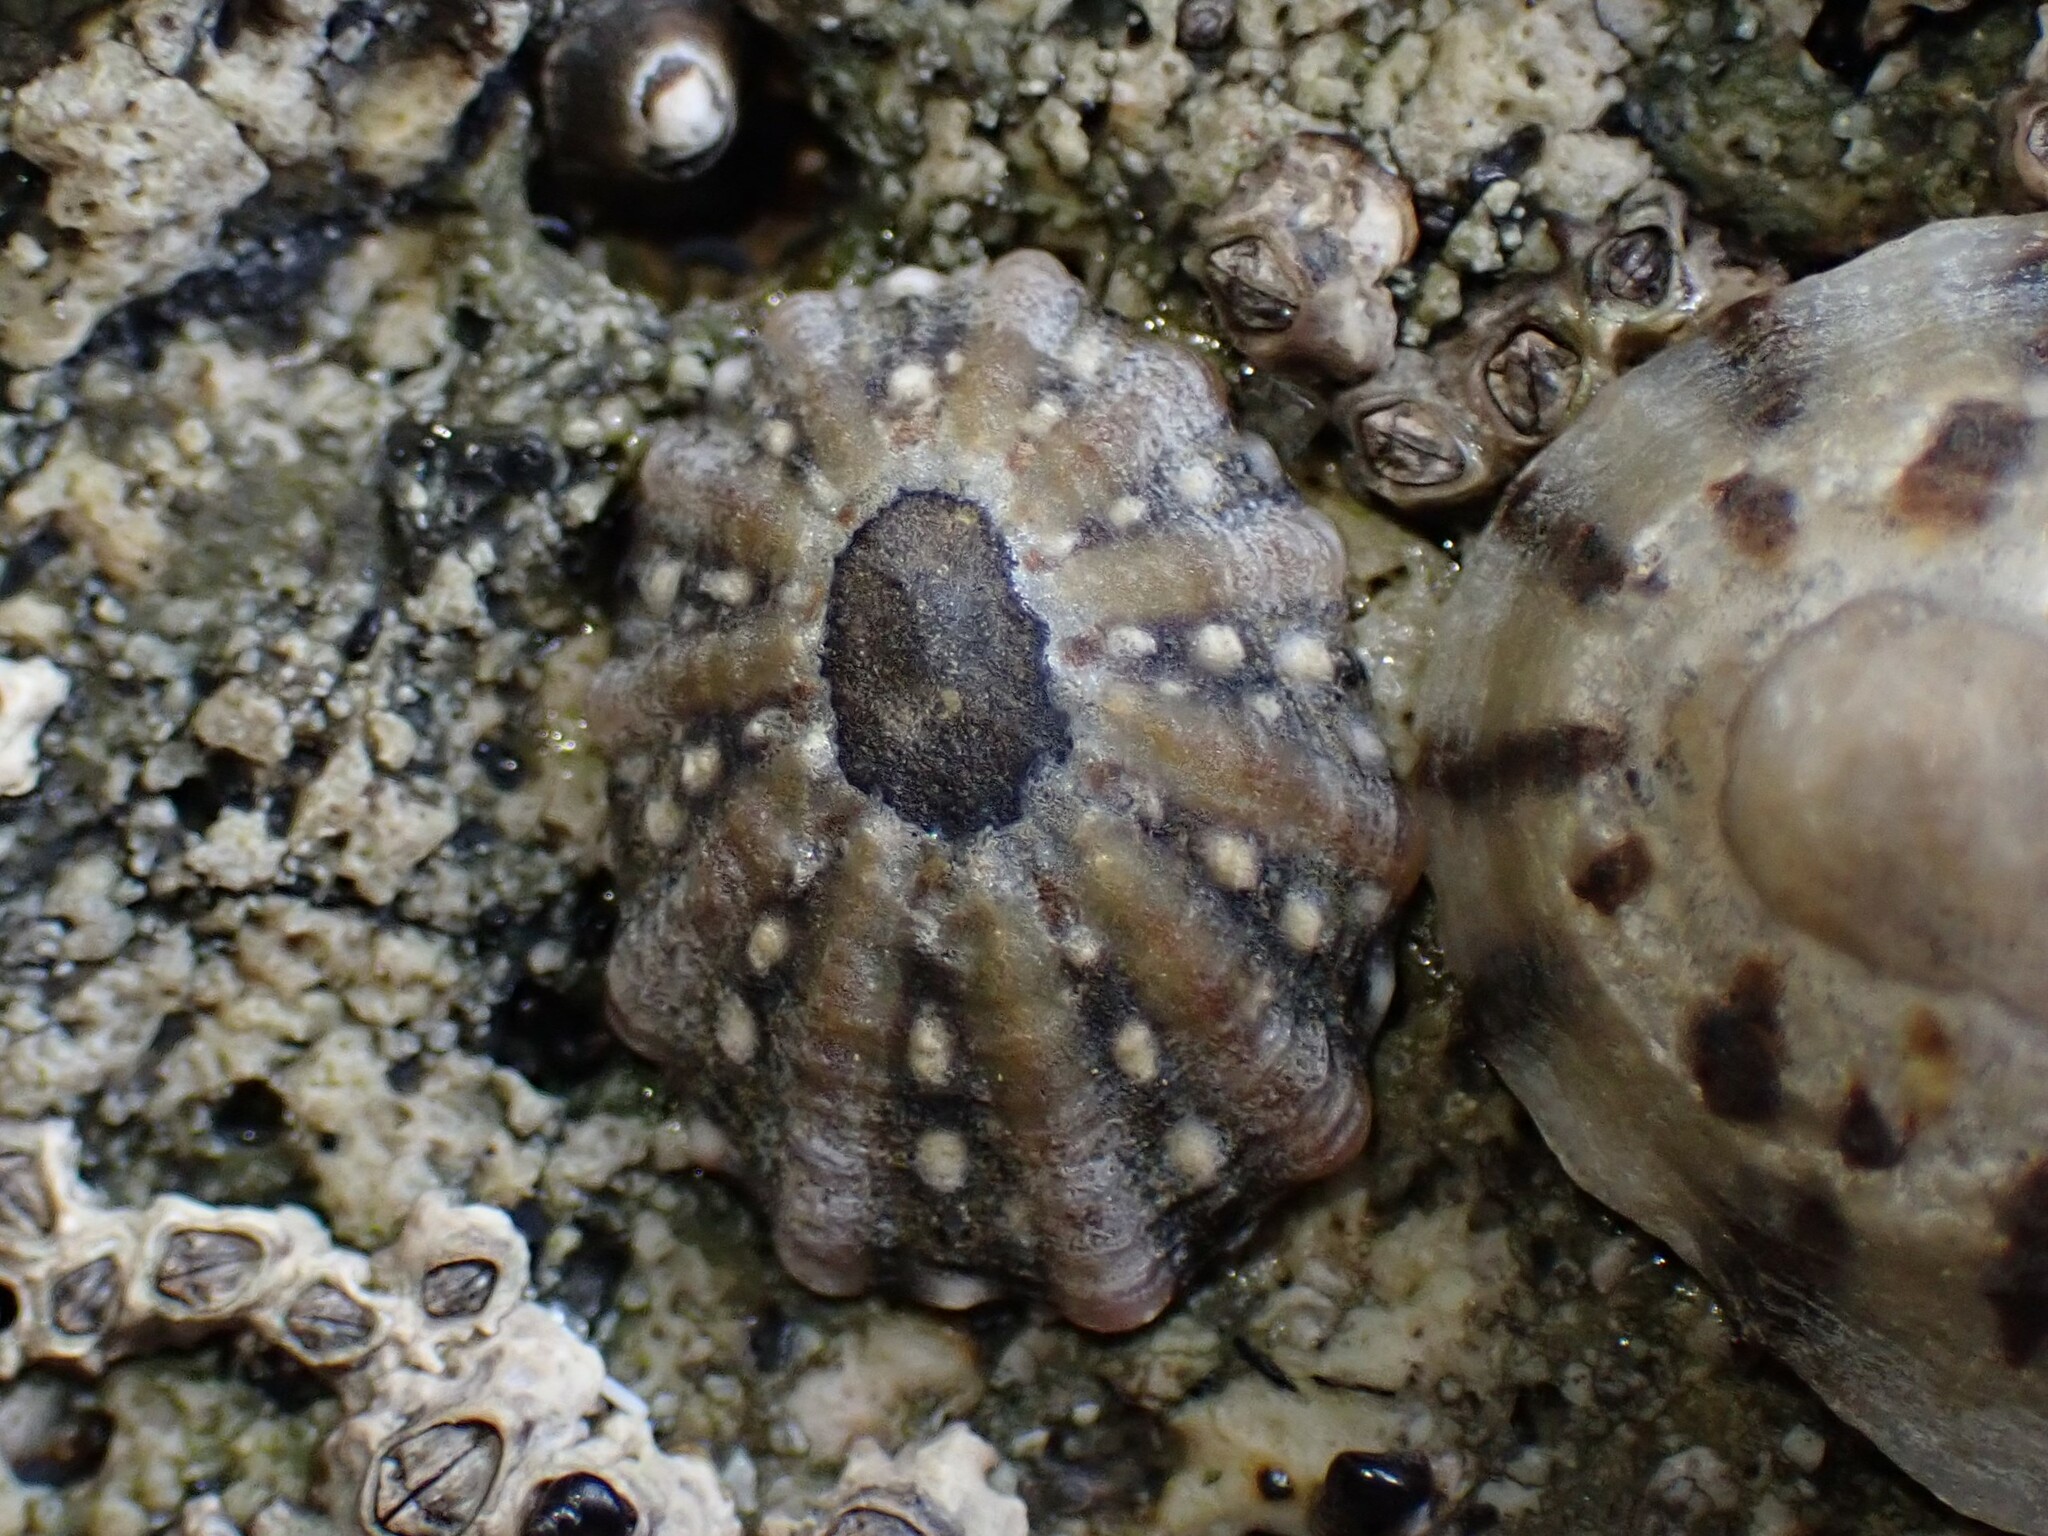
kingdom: Animalia
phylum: Mollusca
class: Gastropoda
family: Nacellidae
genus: Cellana
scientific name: Cellana ornata
